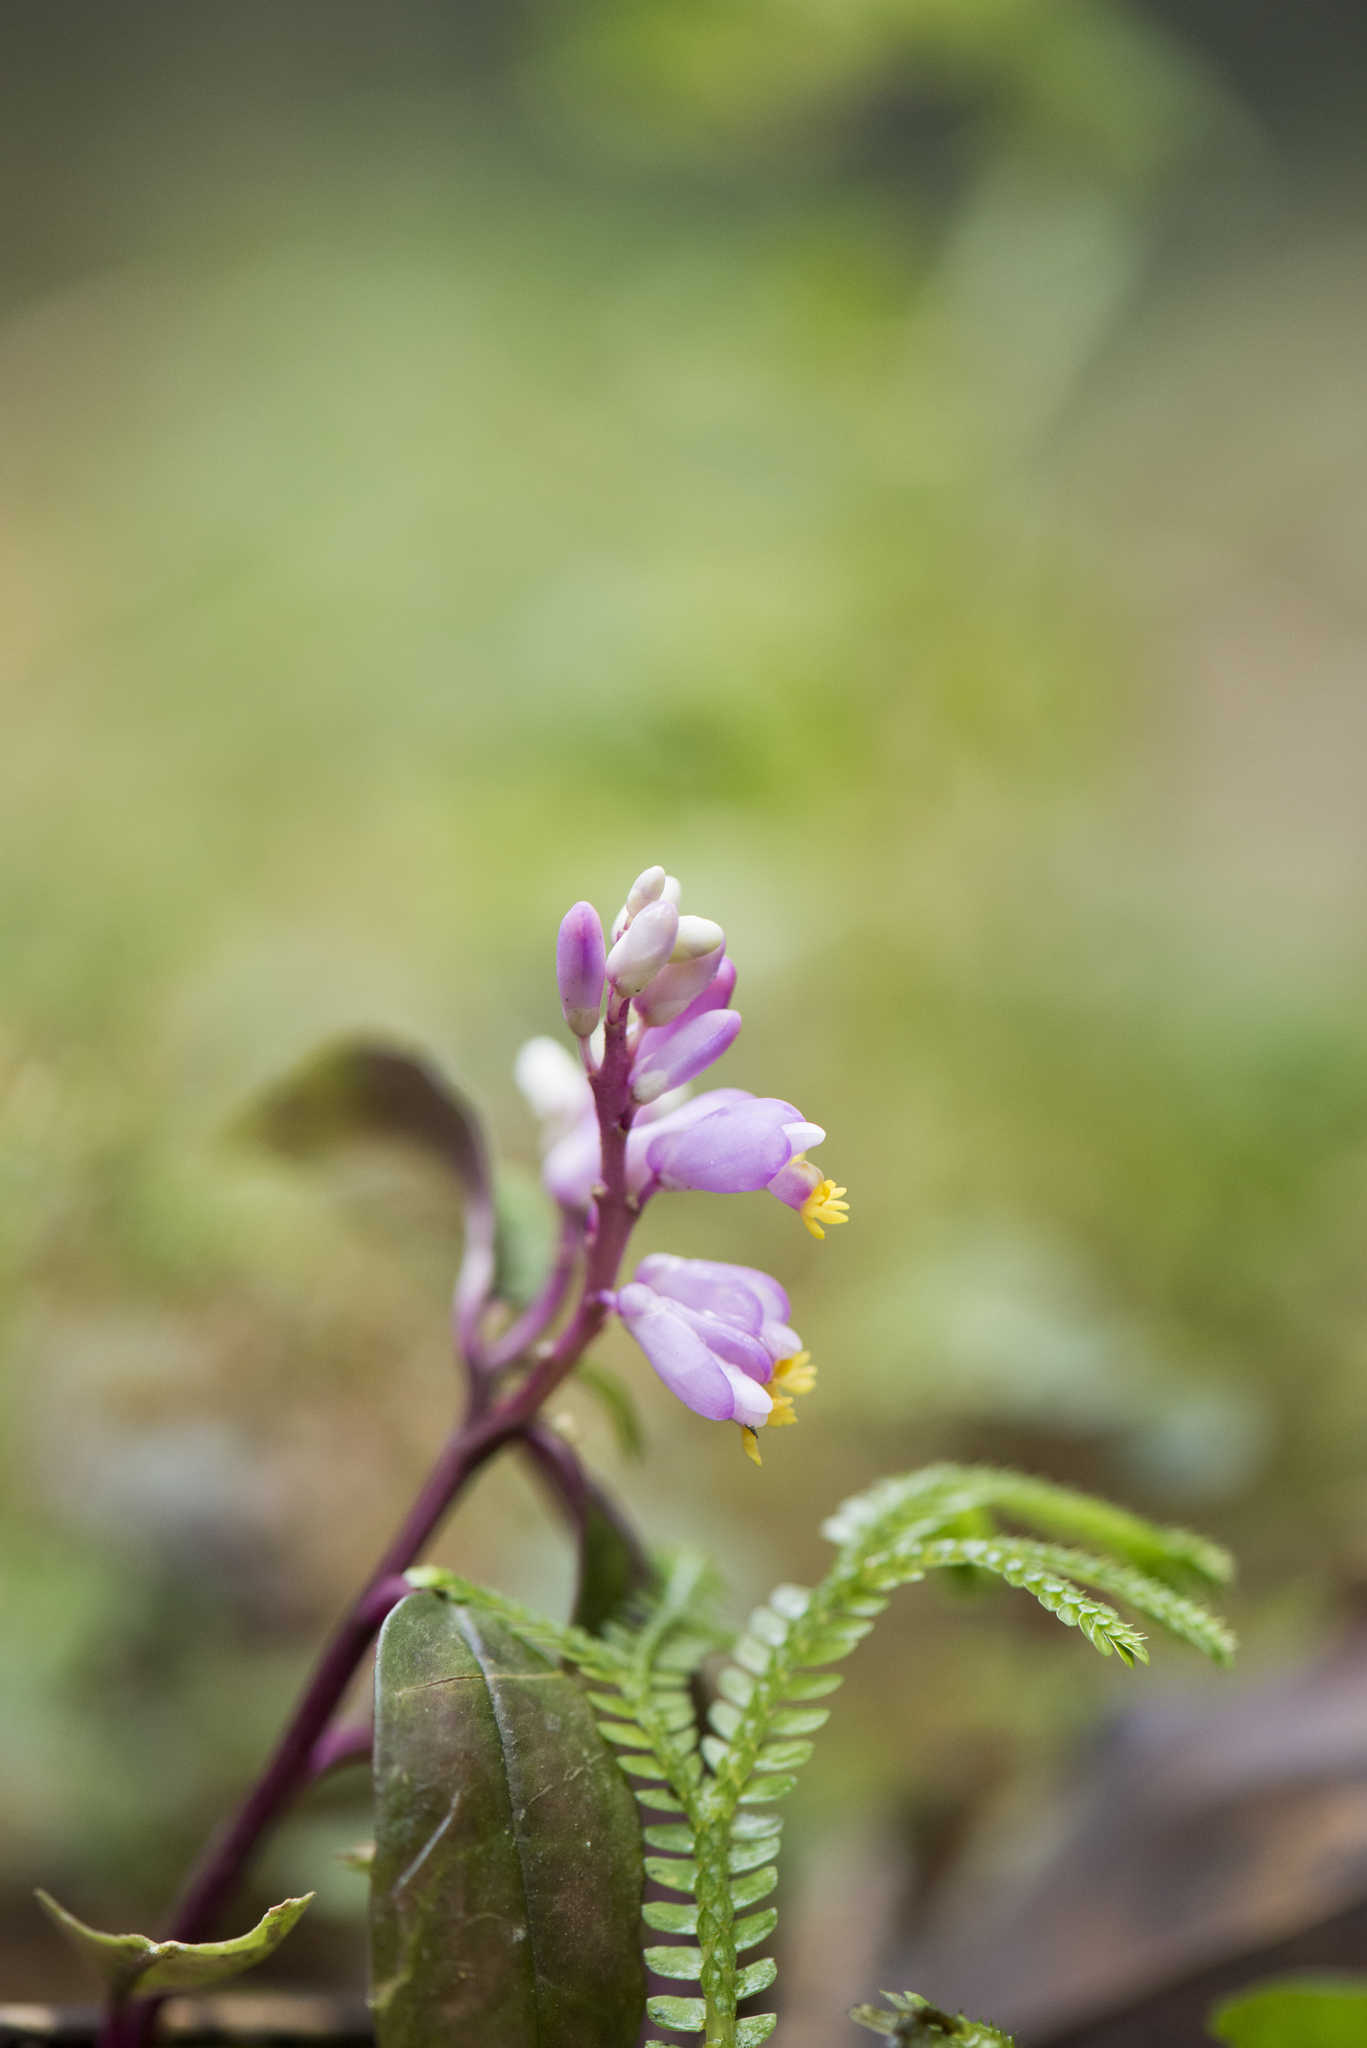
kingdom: Plantae
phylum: Tracheophyta
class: Magnoliopsida
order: Fabales
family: Polygalaceae
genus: Polygala
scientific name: Polygala arcuata
